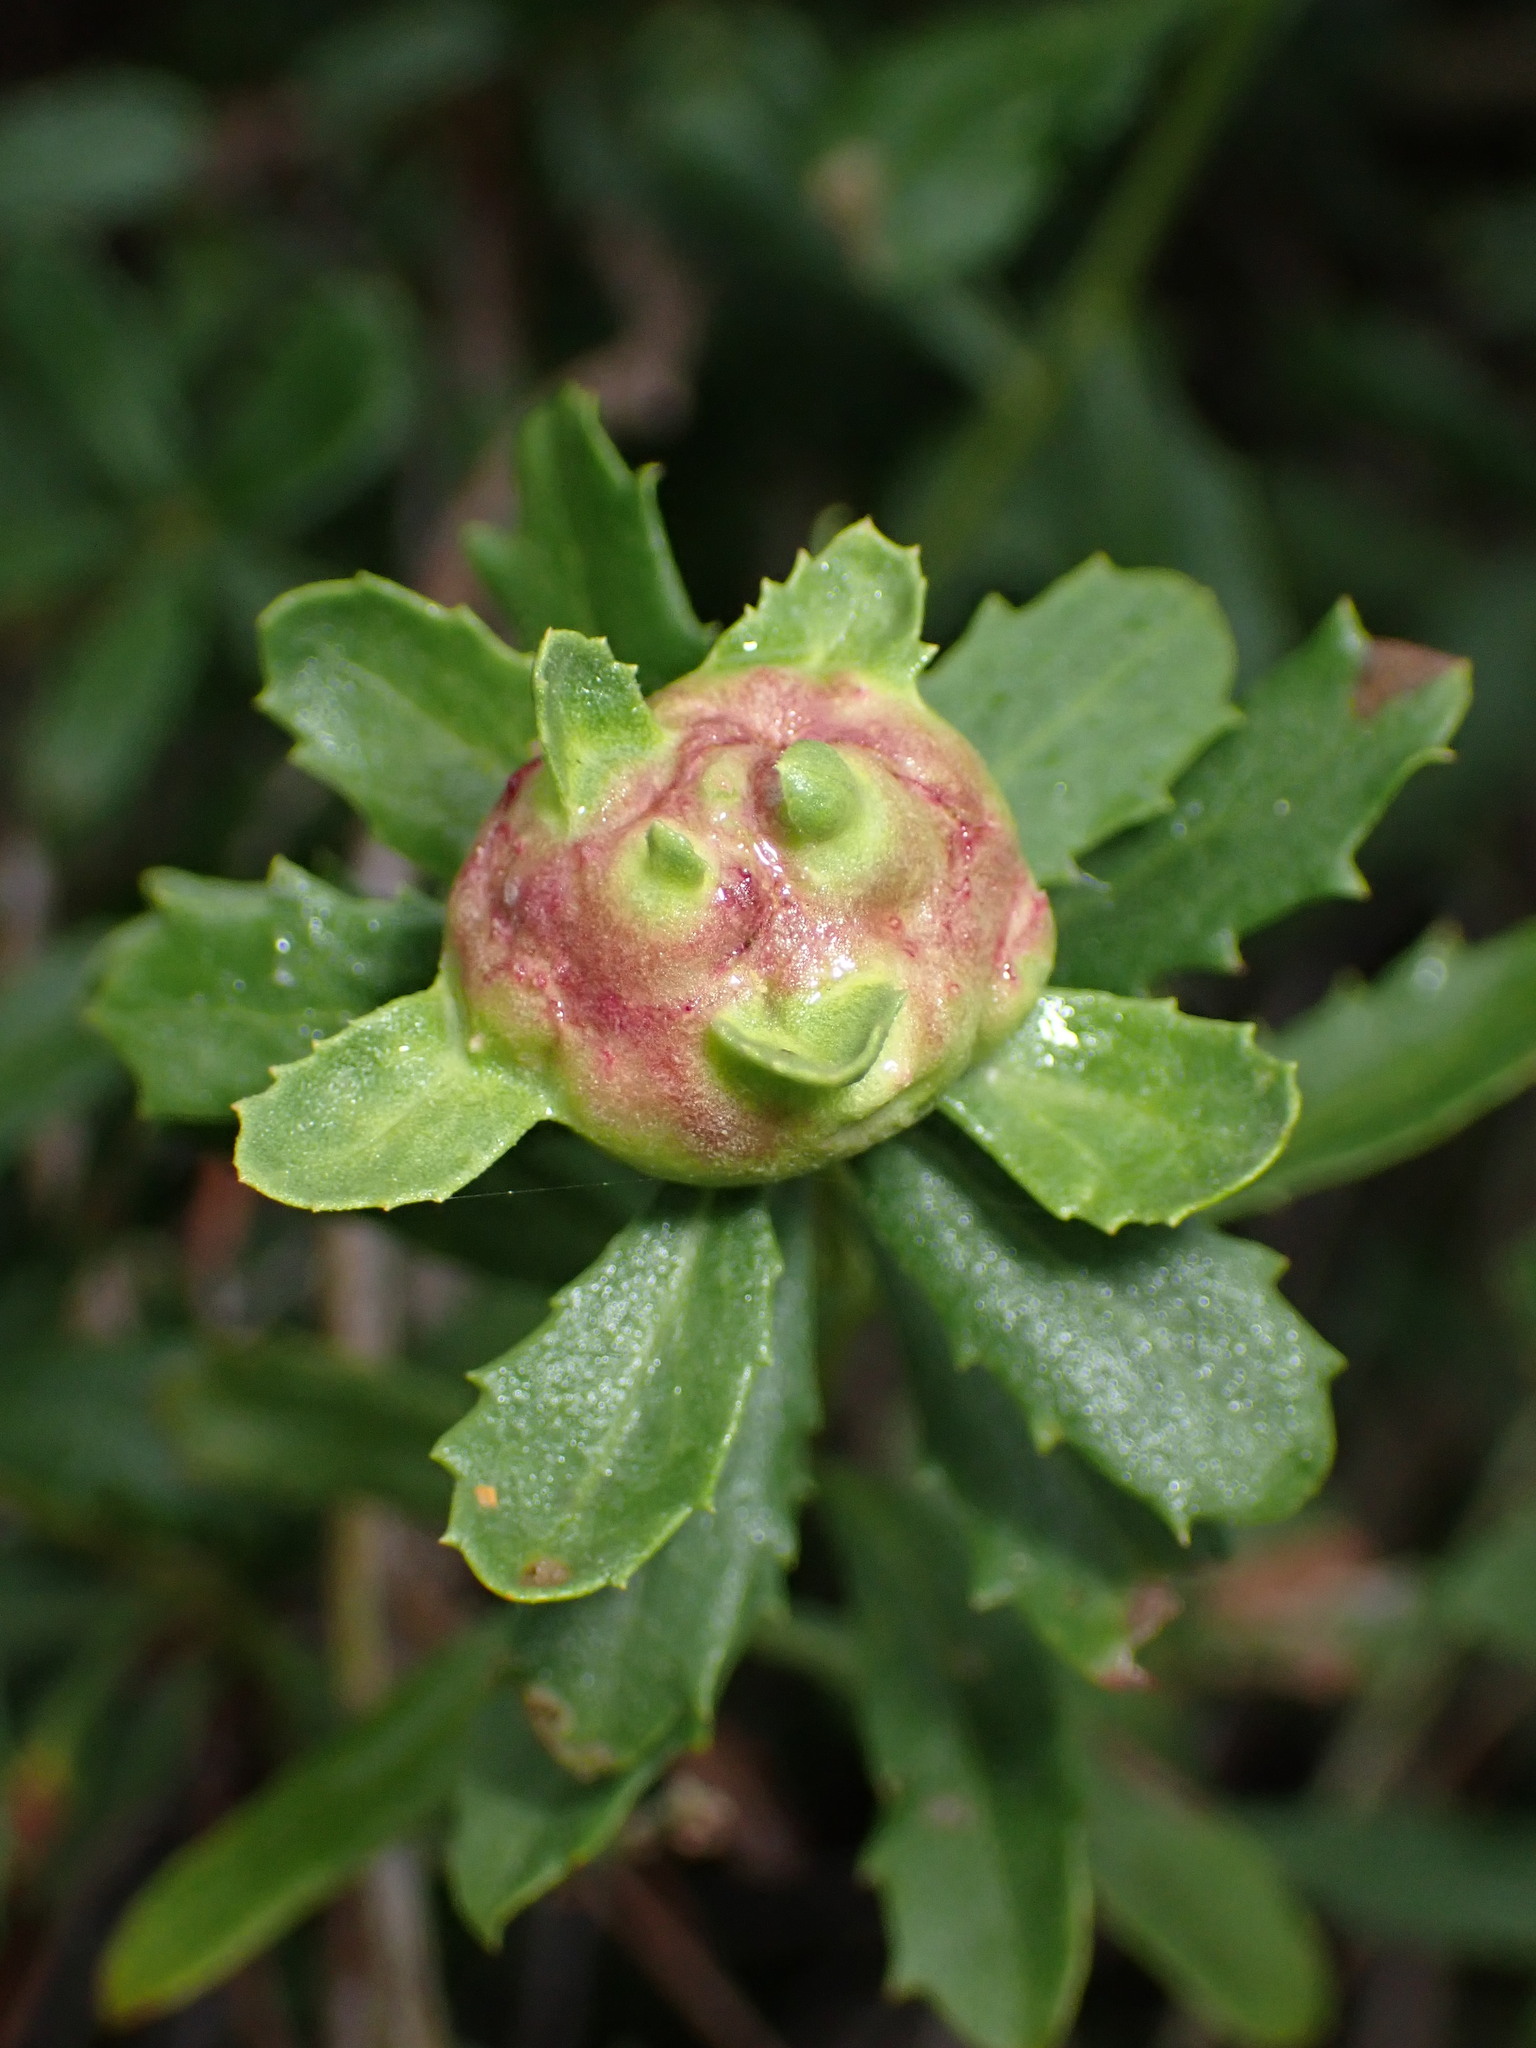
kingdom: Animalia
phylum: Arthropoda
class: Insecta
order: Diptera
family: Cecidomyiidae
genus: Rhopalomyia
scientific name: Rhopalomyia californica
